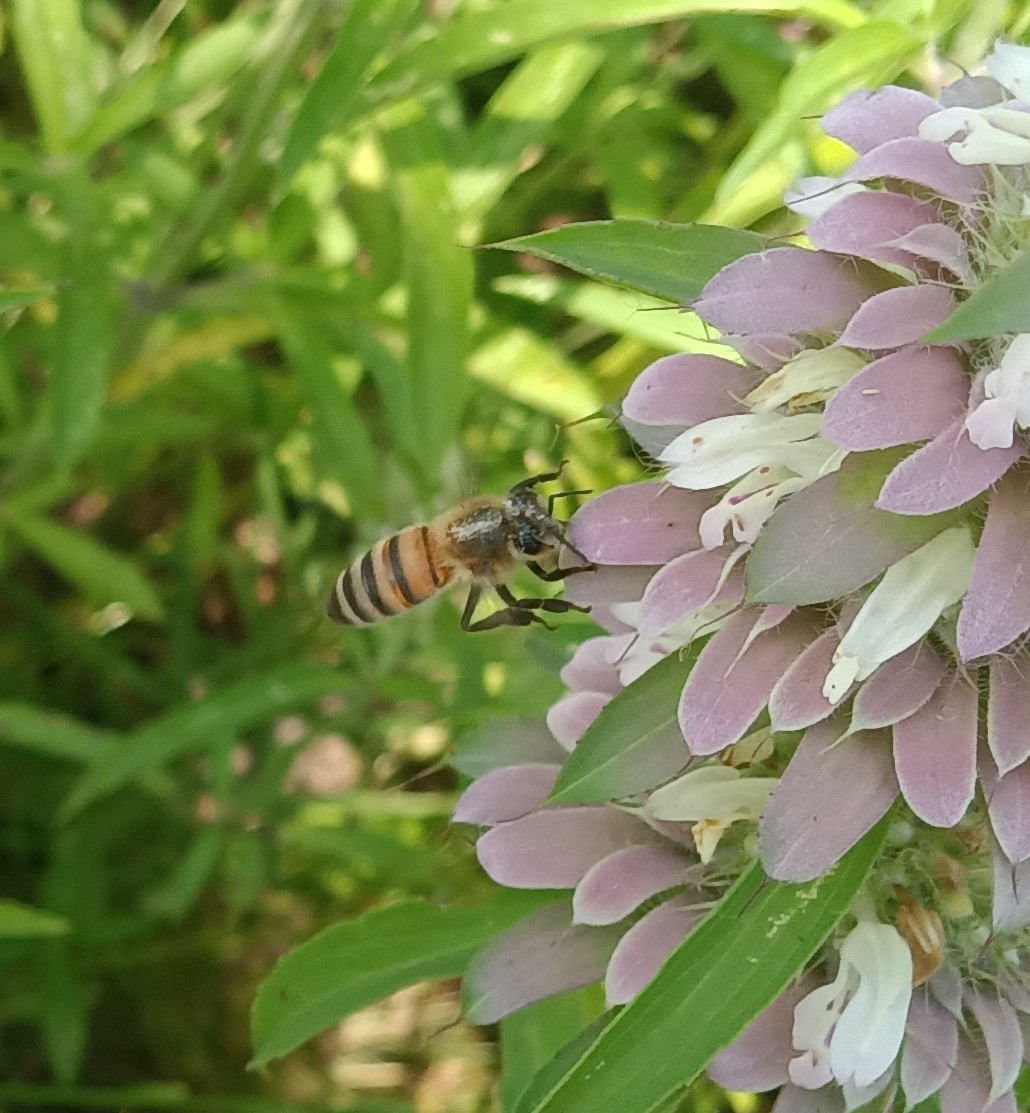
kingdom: Animalia
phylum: Arthropoda
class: Insecta
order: Hymenoptera
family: Apidae
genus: Apis
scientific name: Apis mellifera
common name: Honey bee
